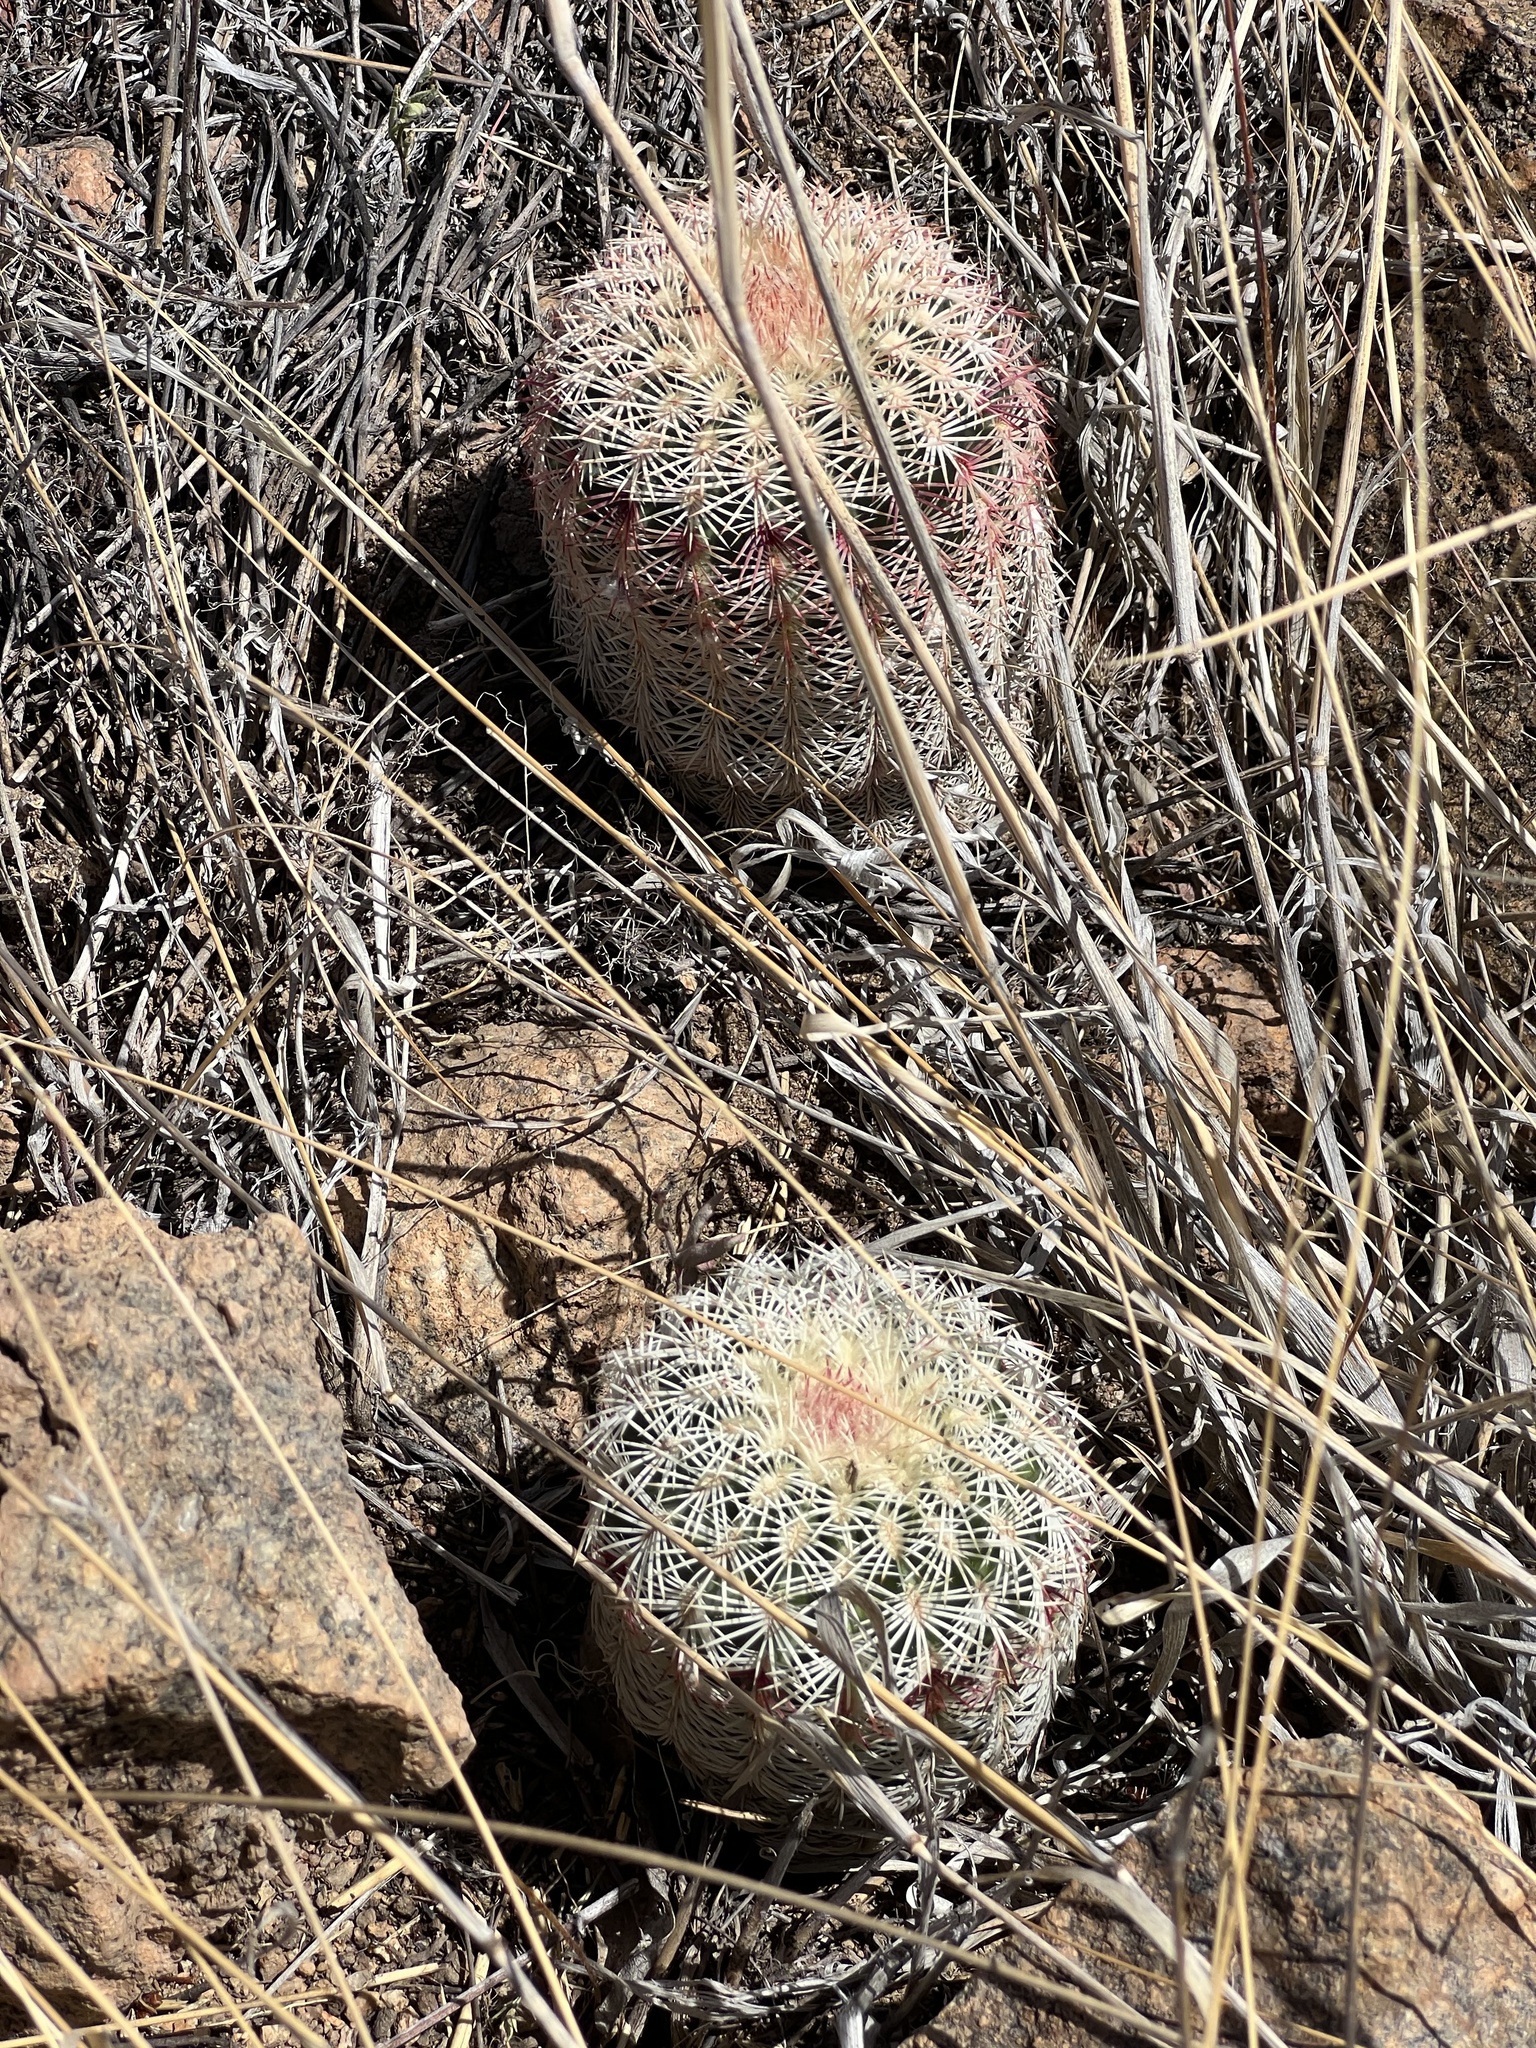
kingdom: Plantae
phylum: Tracheophyta
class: Magnoliopsida
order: Caryophyllales
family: Cactaceae
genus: Echinocereus
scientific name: Echinocereus rigidissimus
